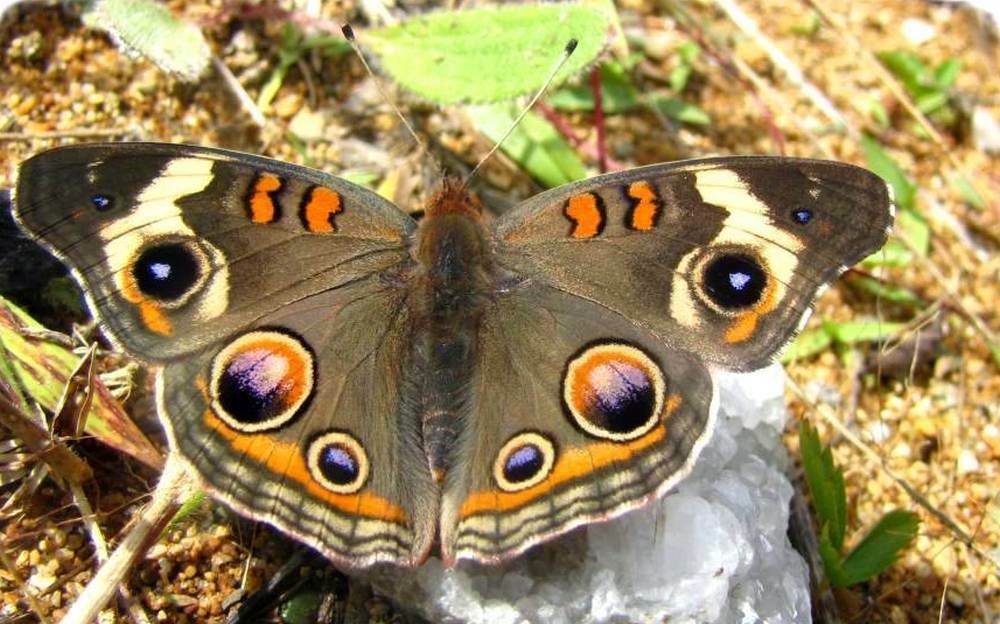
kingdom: Animalia
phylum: Arthropoda
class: Insecta
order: Lepidoptera
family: Nymphalidae
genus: Junonia
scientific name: Junonia coenia
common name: Common buckeye
